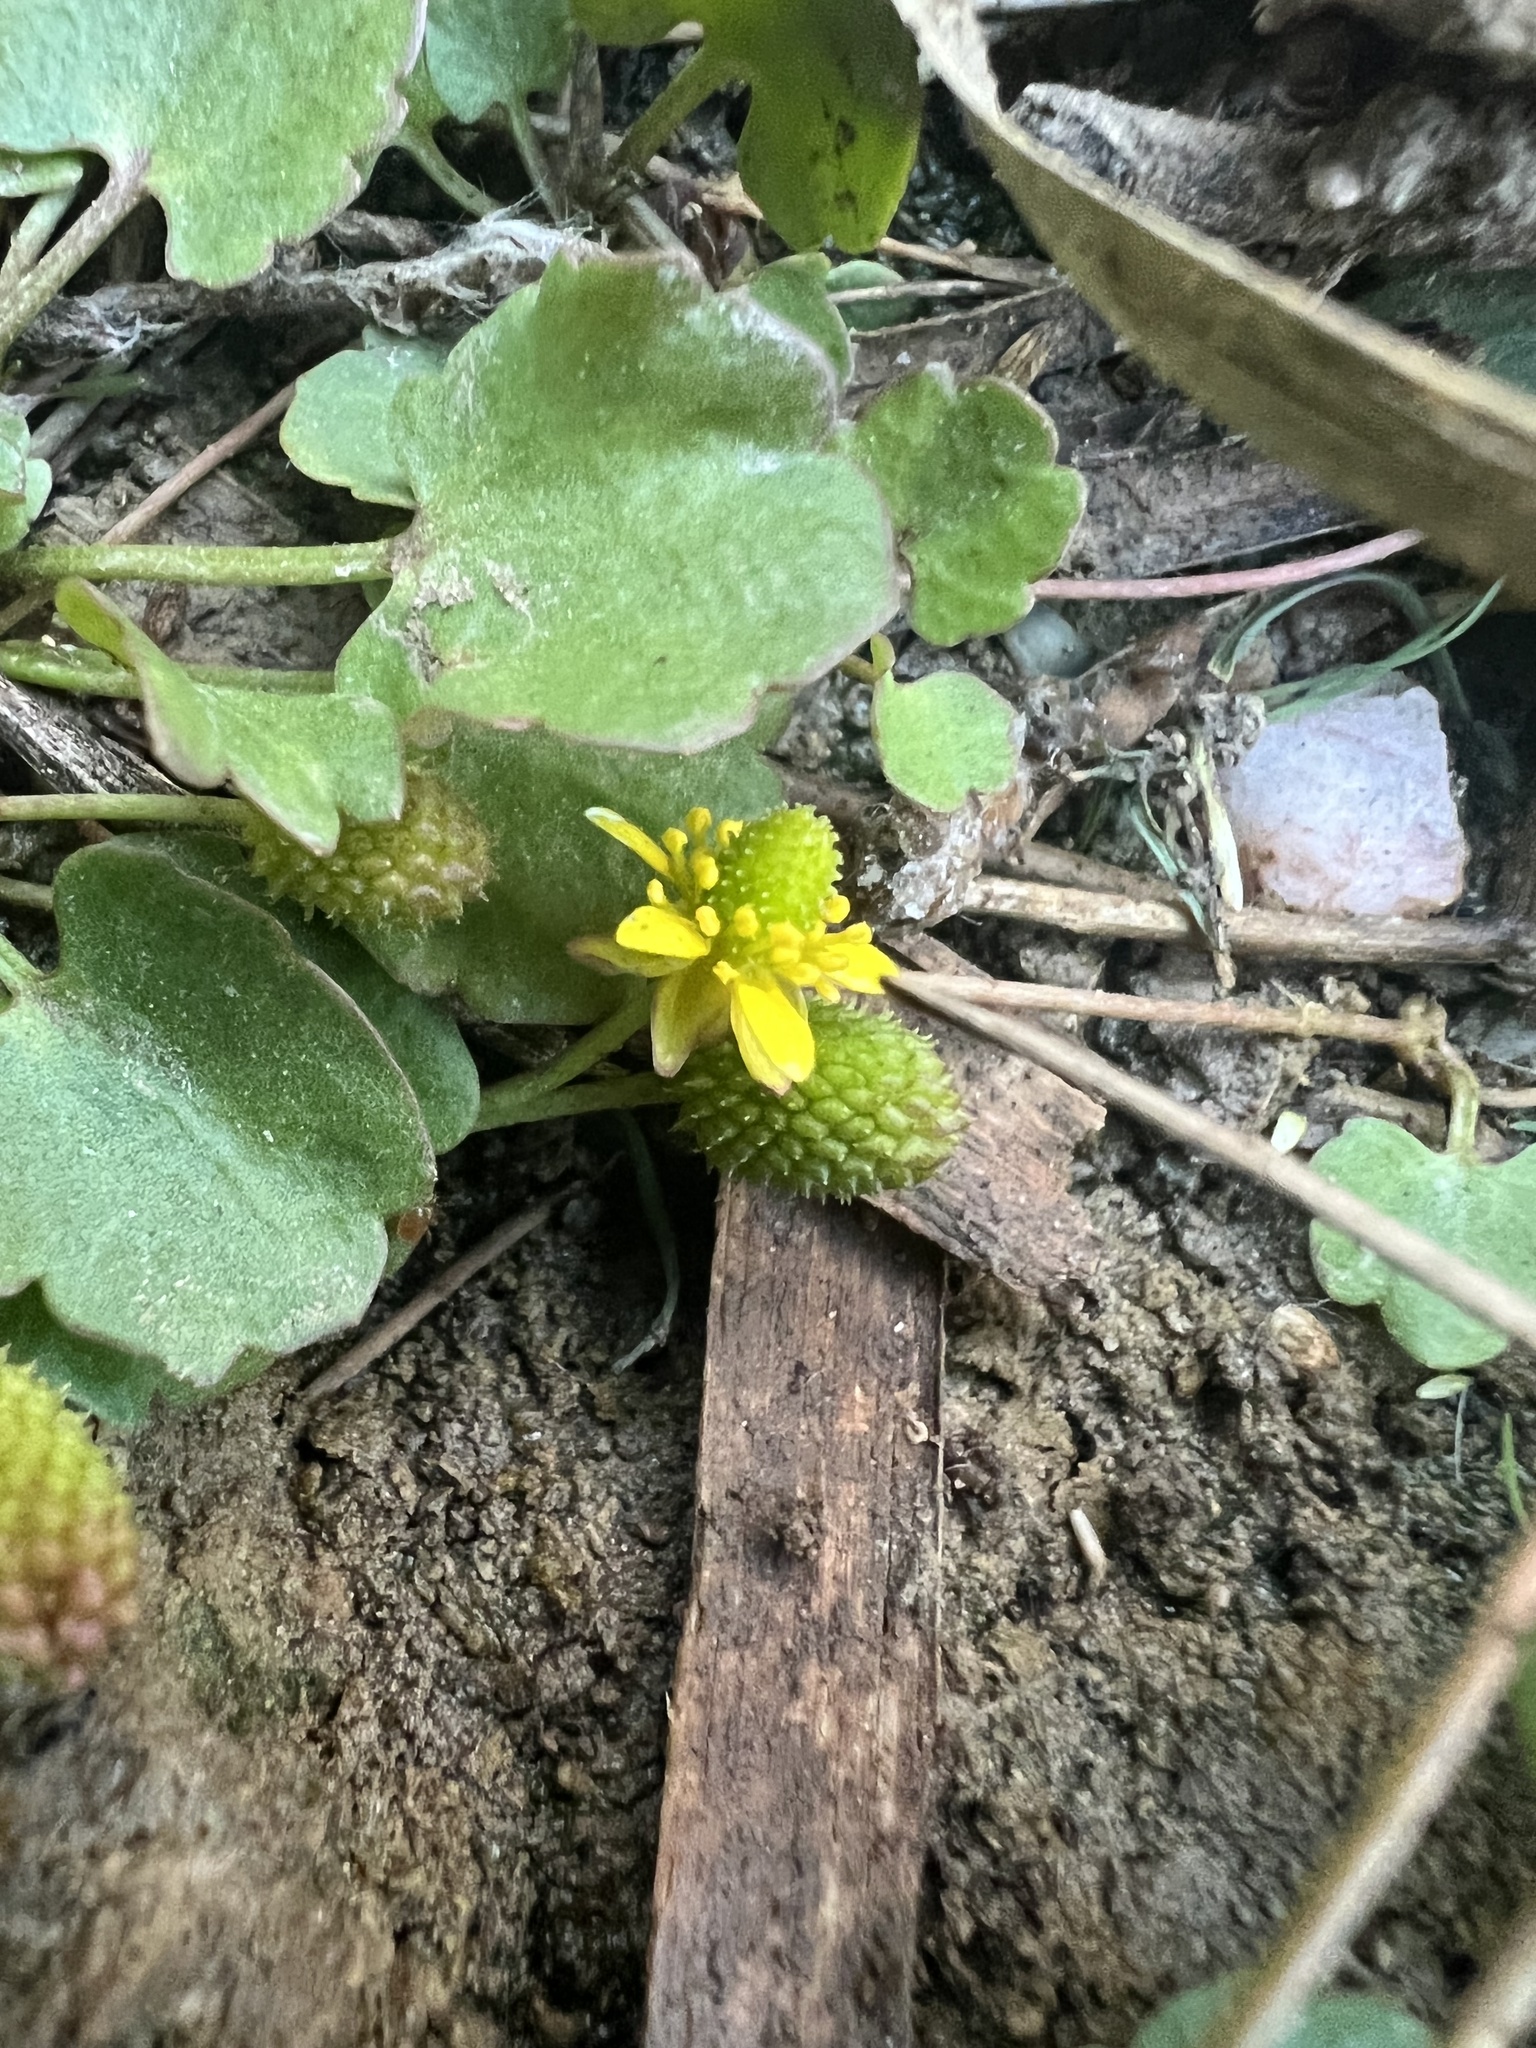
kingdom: Plantae
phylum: Tracheophyta
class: Magnoliopsida
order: Ranunculales
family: Ranunculaceae
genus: Halerpestes
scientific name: Halerpestes cymbalaria
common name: Seaside crowfoot
